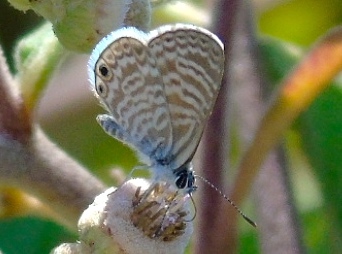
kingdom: Animalia
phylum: Arthropoda
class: Insecta
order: Lepidoptera
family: Lycaenidae
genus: Leptotes
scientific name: Leptotes marina
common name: Marine blue
